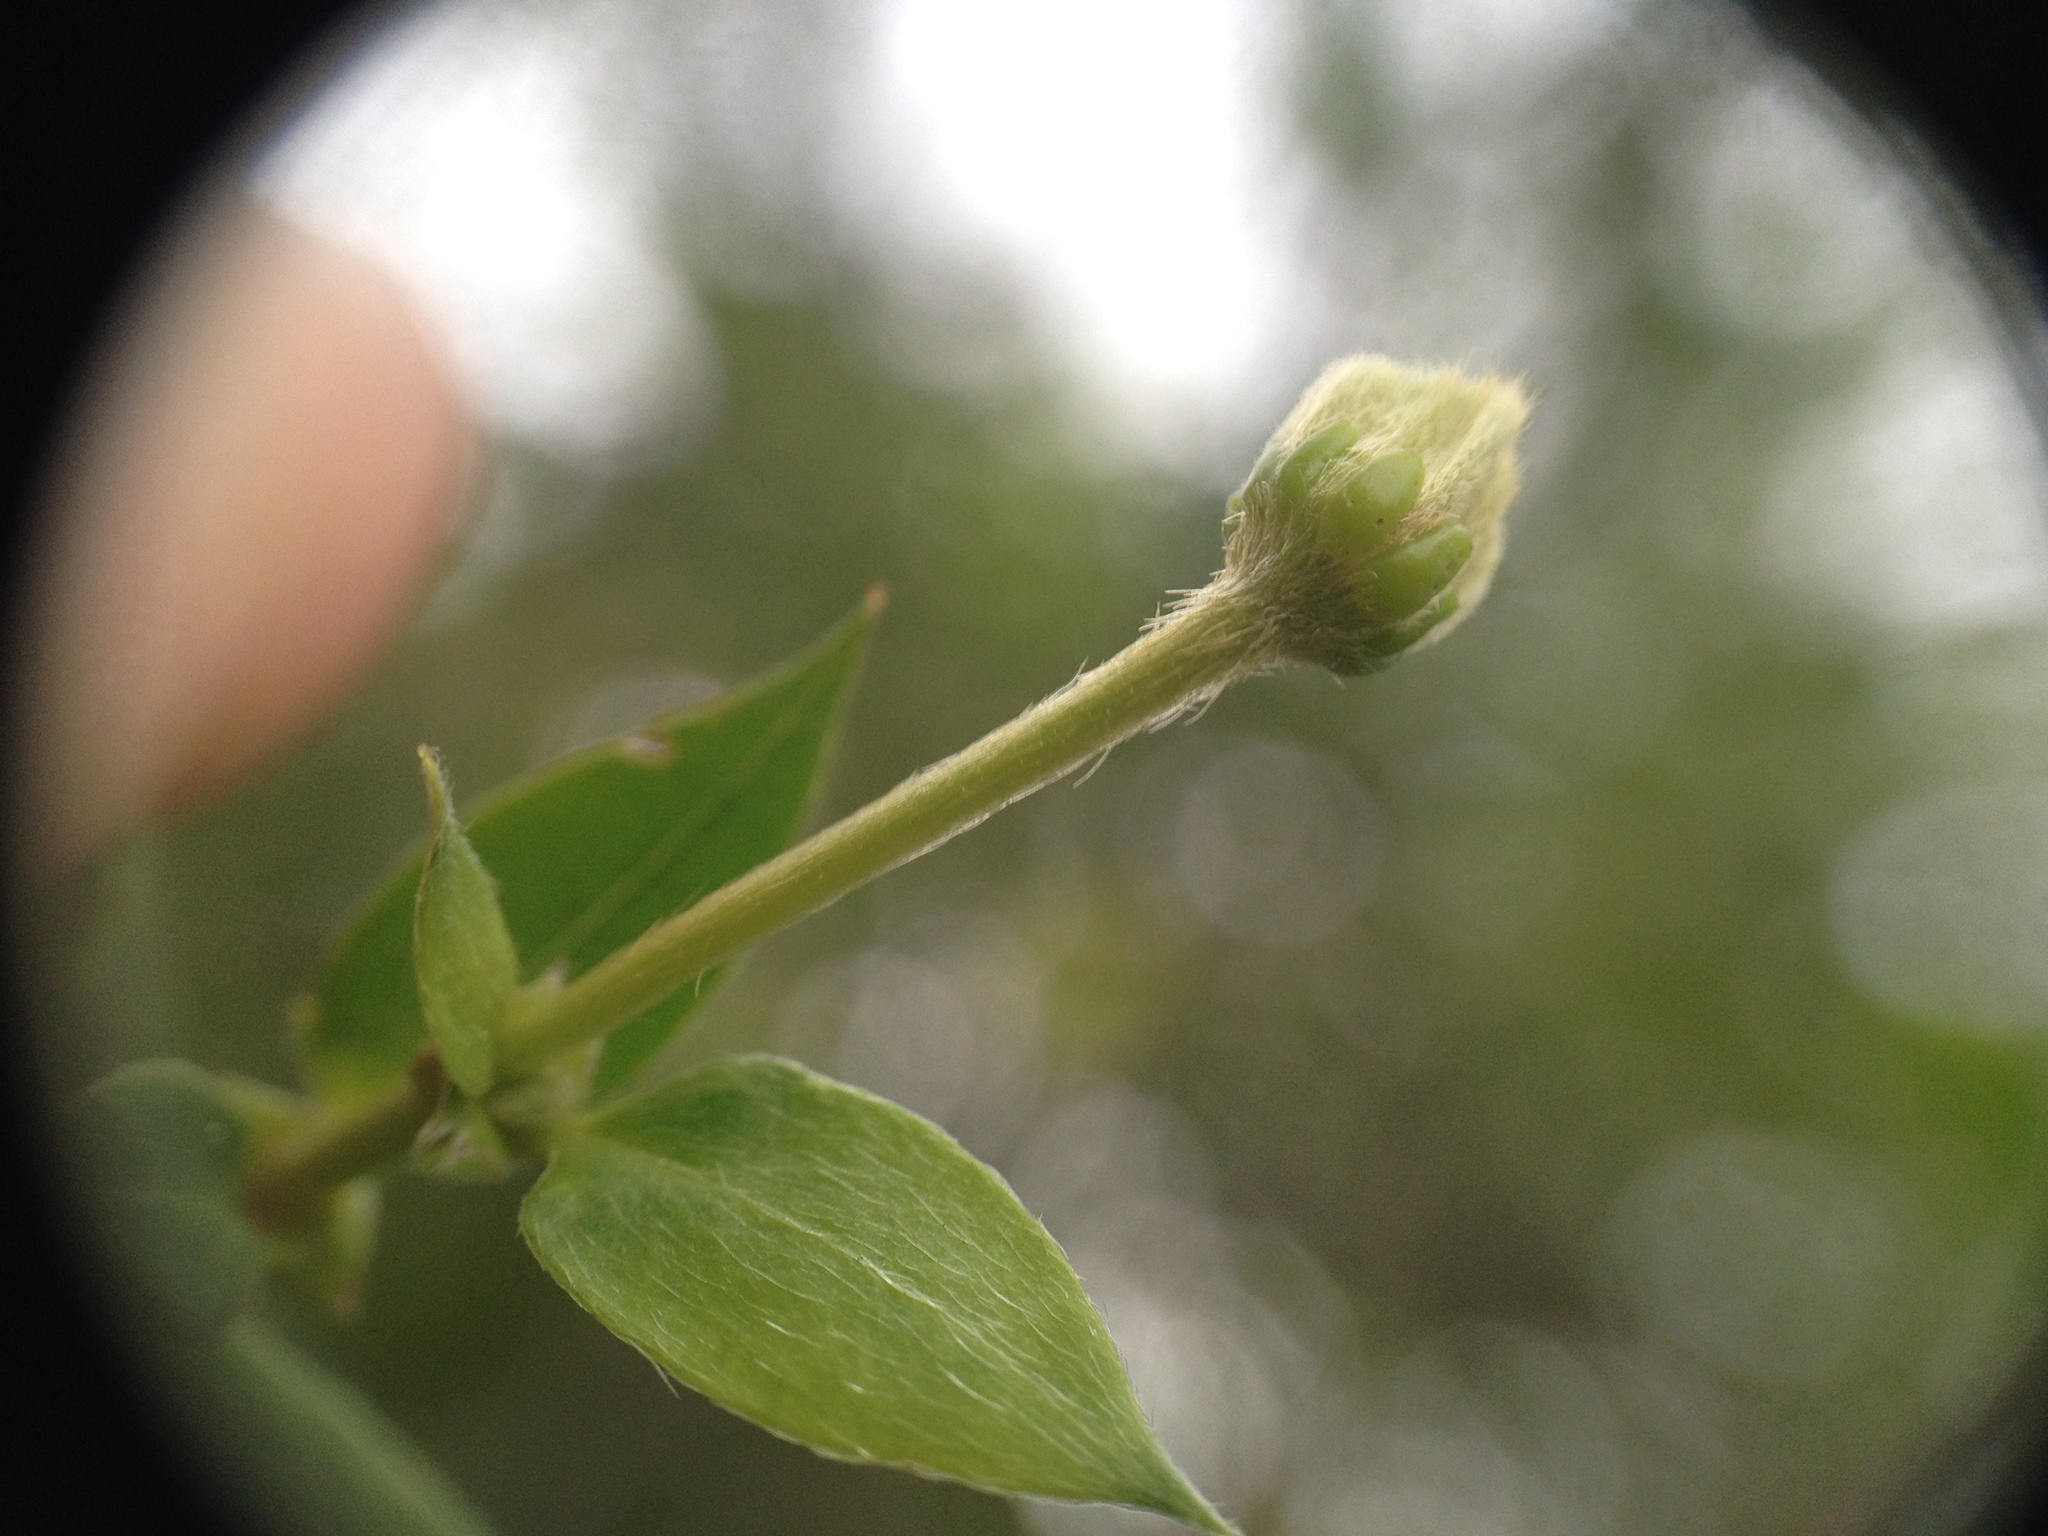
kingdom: Plantae
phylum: Tracheophyta
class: Magnoliopsida
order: Malpighiales
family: Malpighiaceae
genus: Cordobia
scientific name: Cordobia argentea
